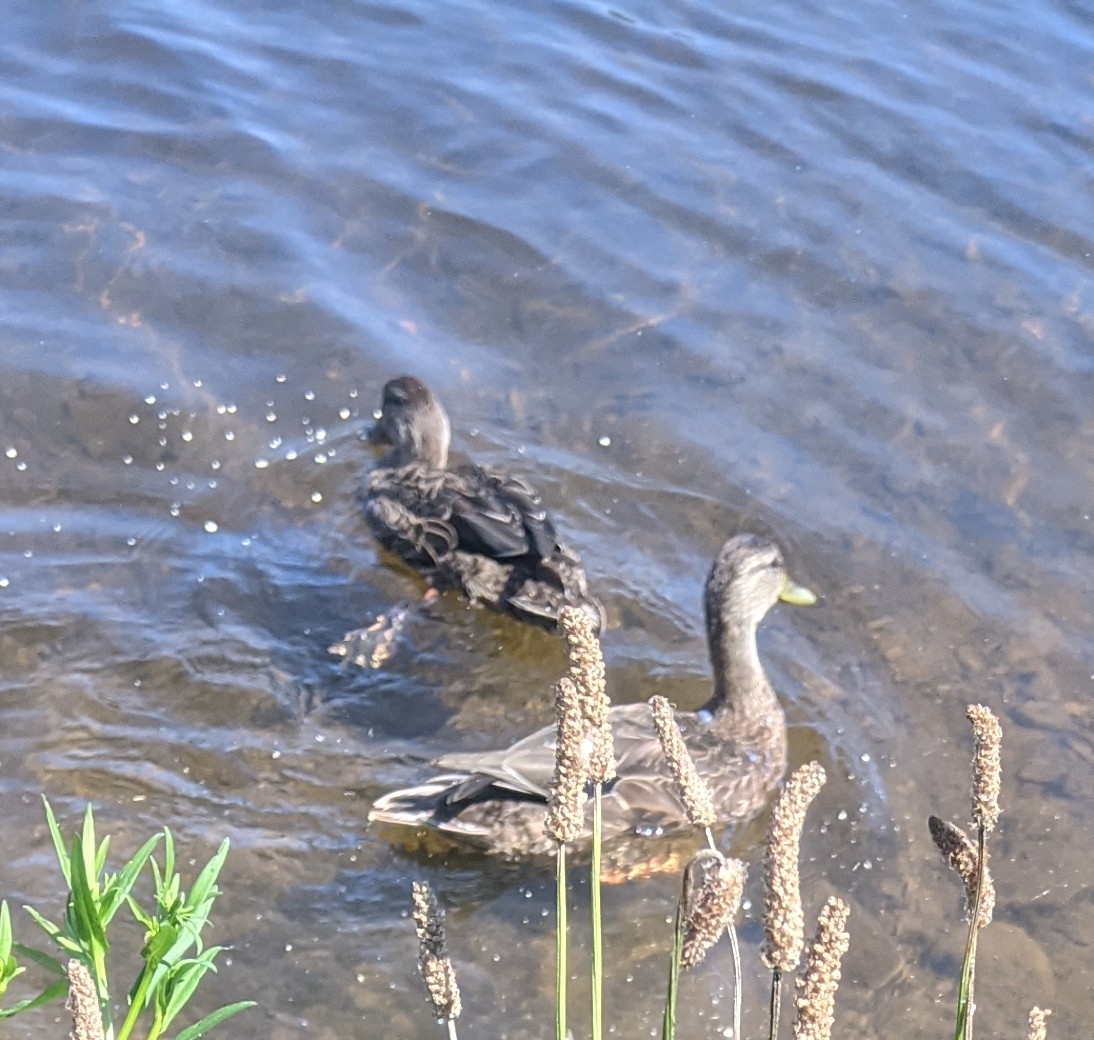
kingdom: Animalia
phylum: Chordata
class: Aves
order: Anseriformes
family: Anatidae
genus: Anas
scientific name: Anas rubripes
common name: American black duck
